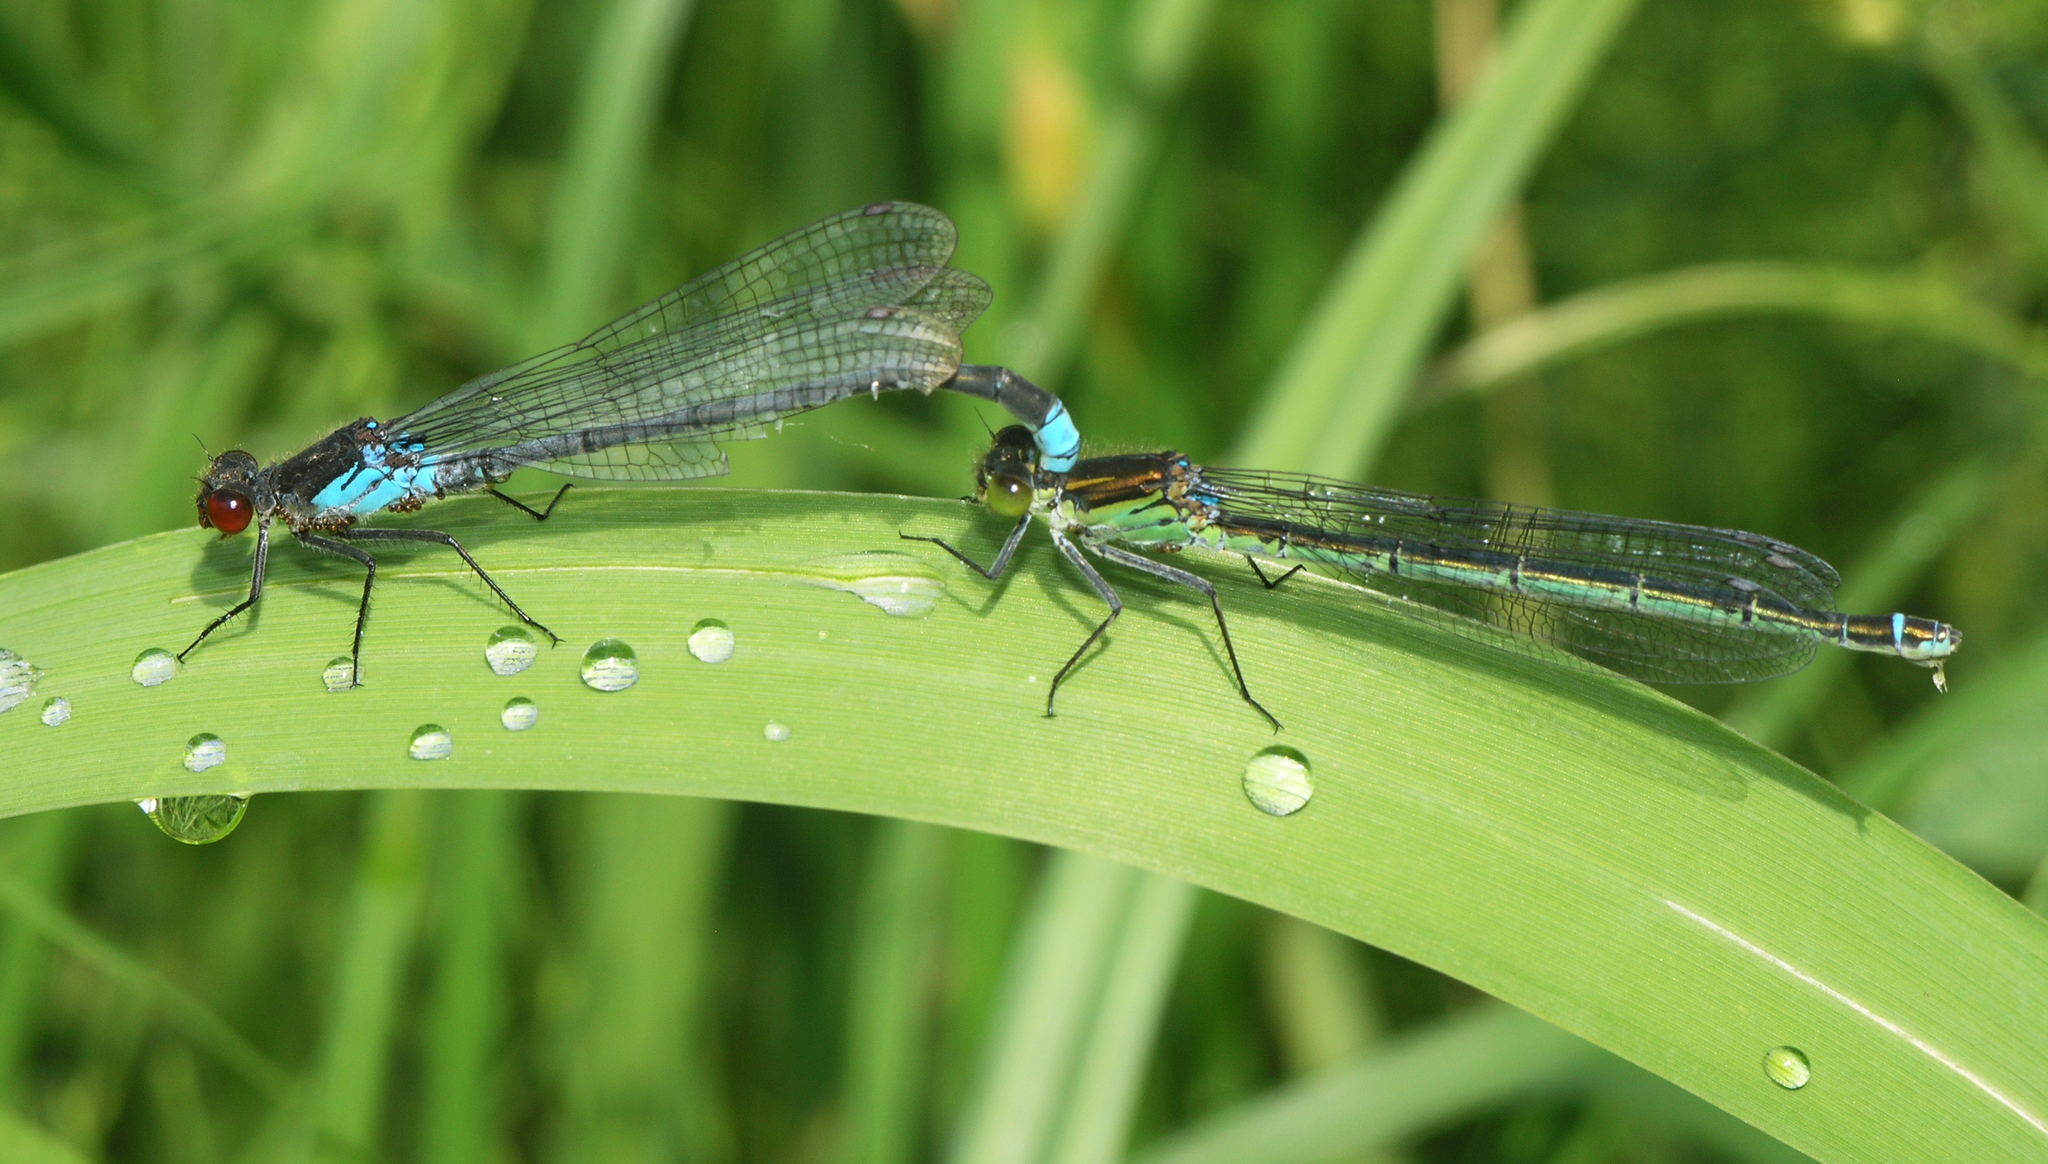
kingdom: Animalia
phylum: Arthropoda
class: Insecta
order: Odonata
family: Coenagrionidae
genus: Erythromma
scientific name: Erythromma najas
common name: Red-eyed damselfly
